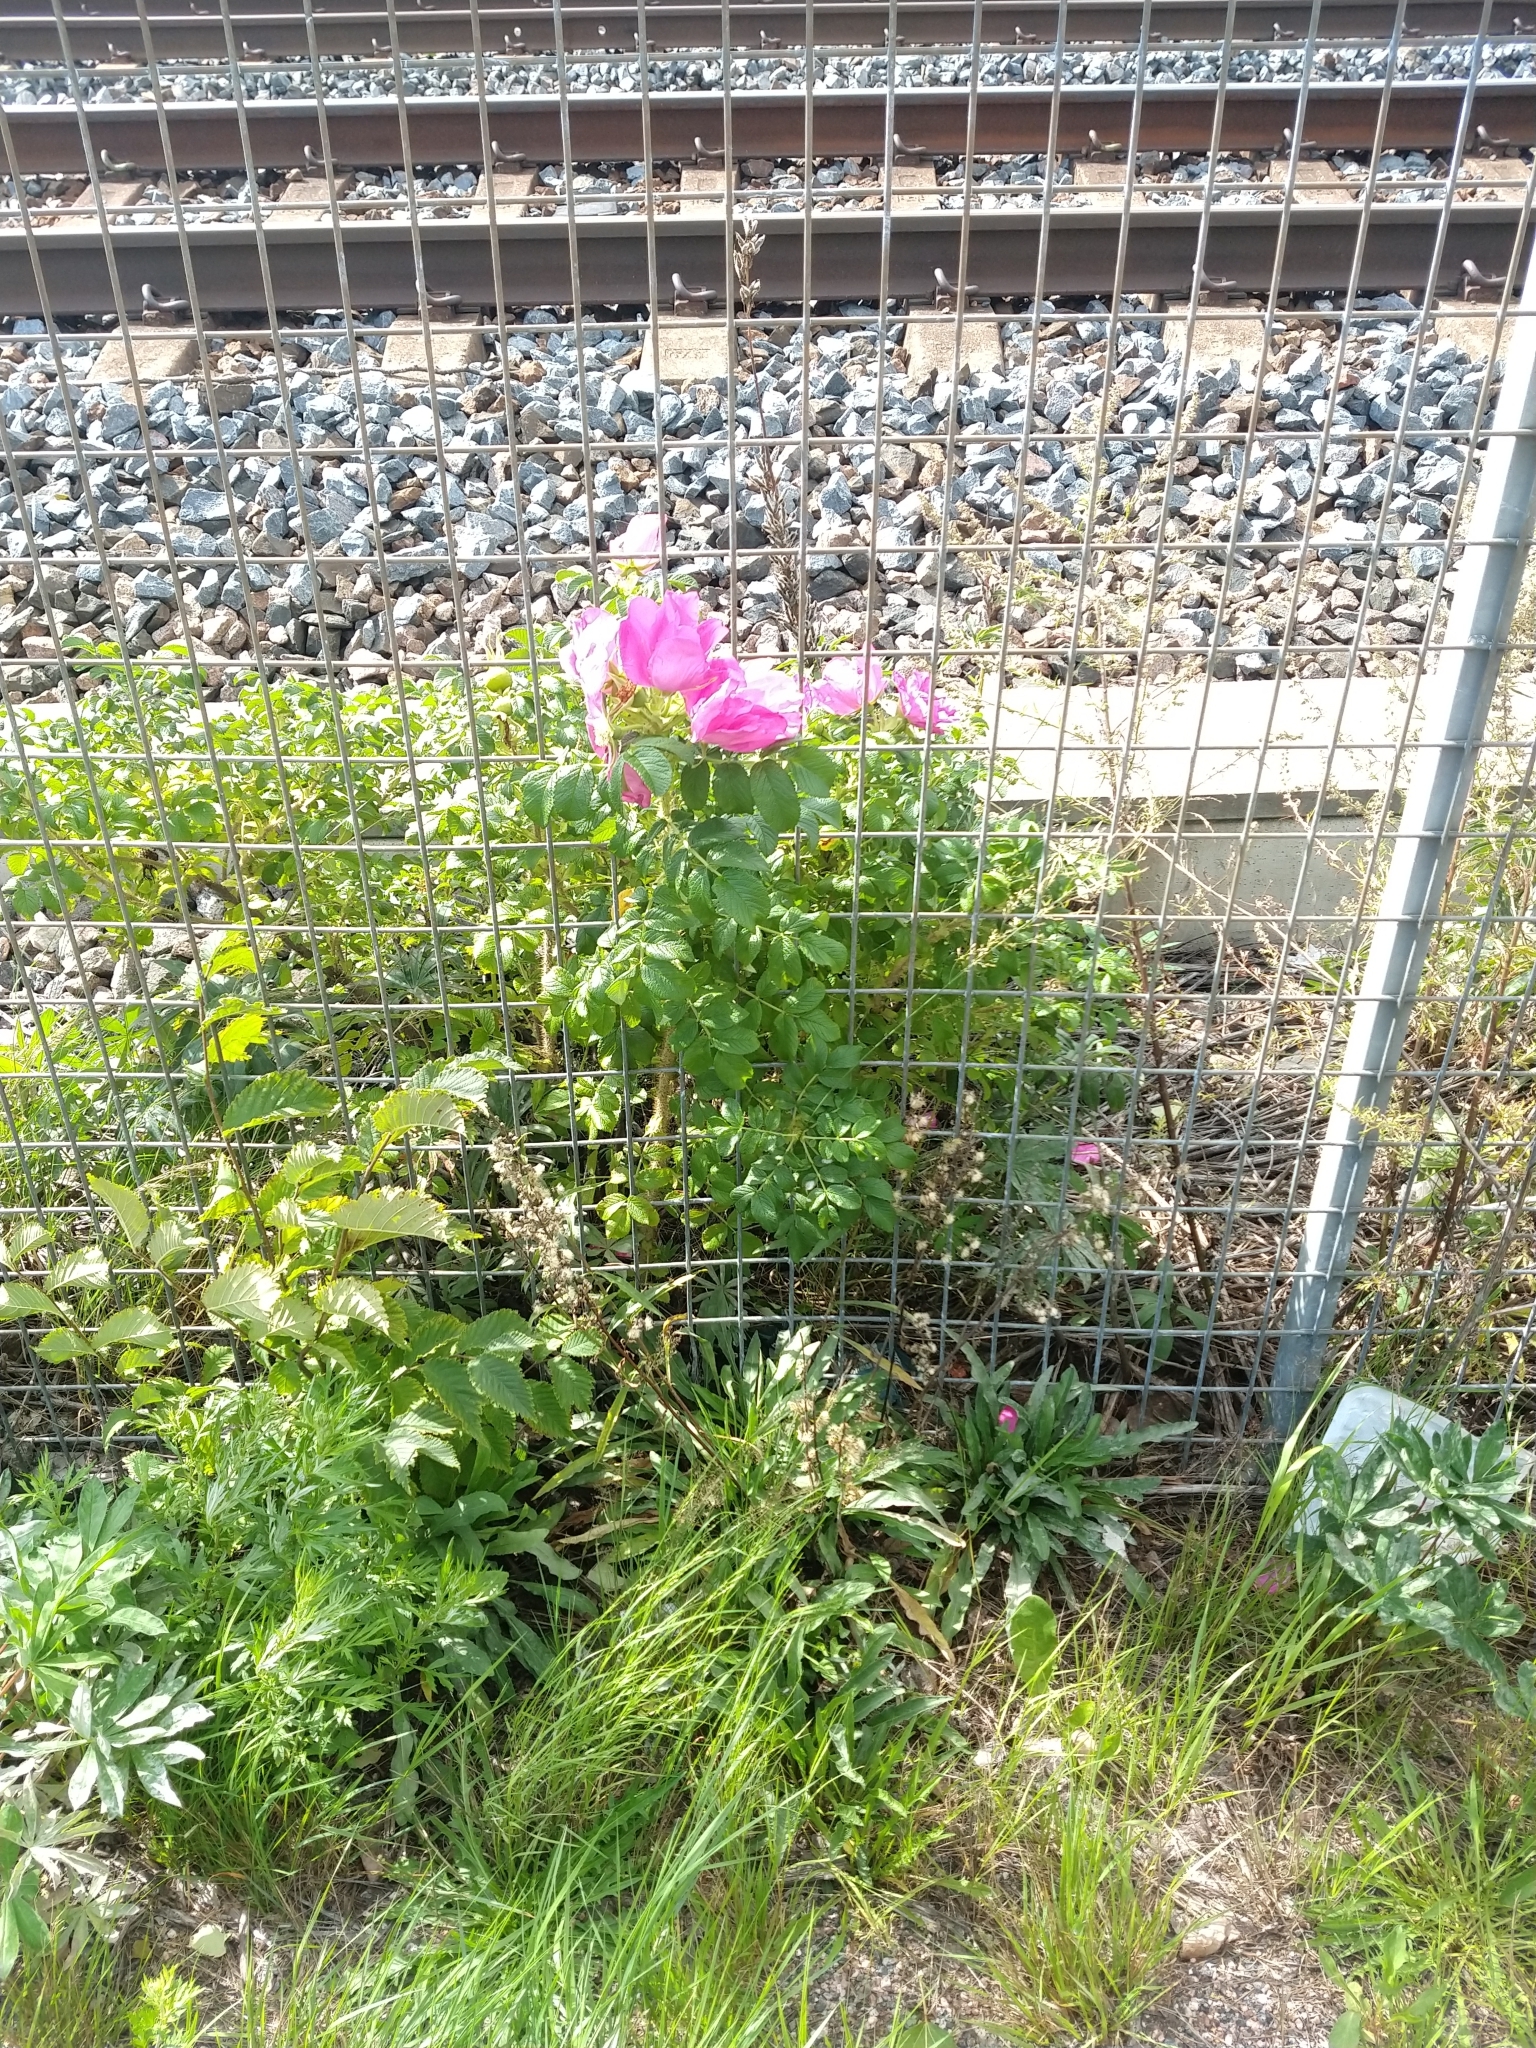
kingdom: Plantae
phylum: Tracheophyta
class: Magnoliopsida
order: Rosales
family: Rosaceae
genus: Rosa
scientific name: Rosa rugosa
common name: Japanese rose
